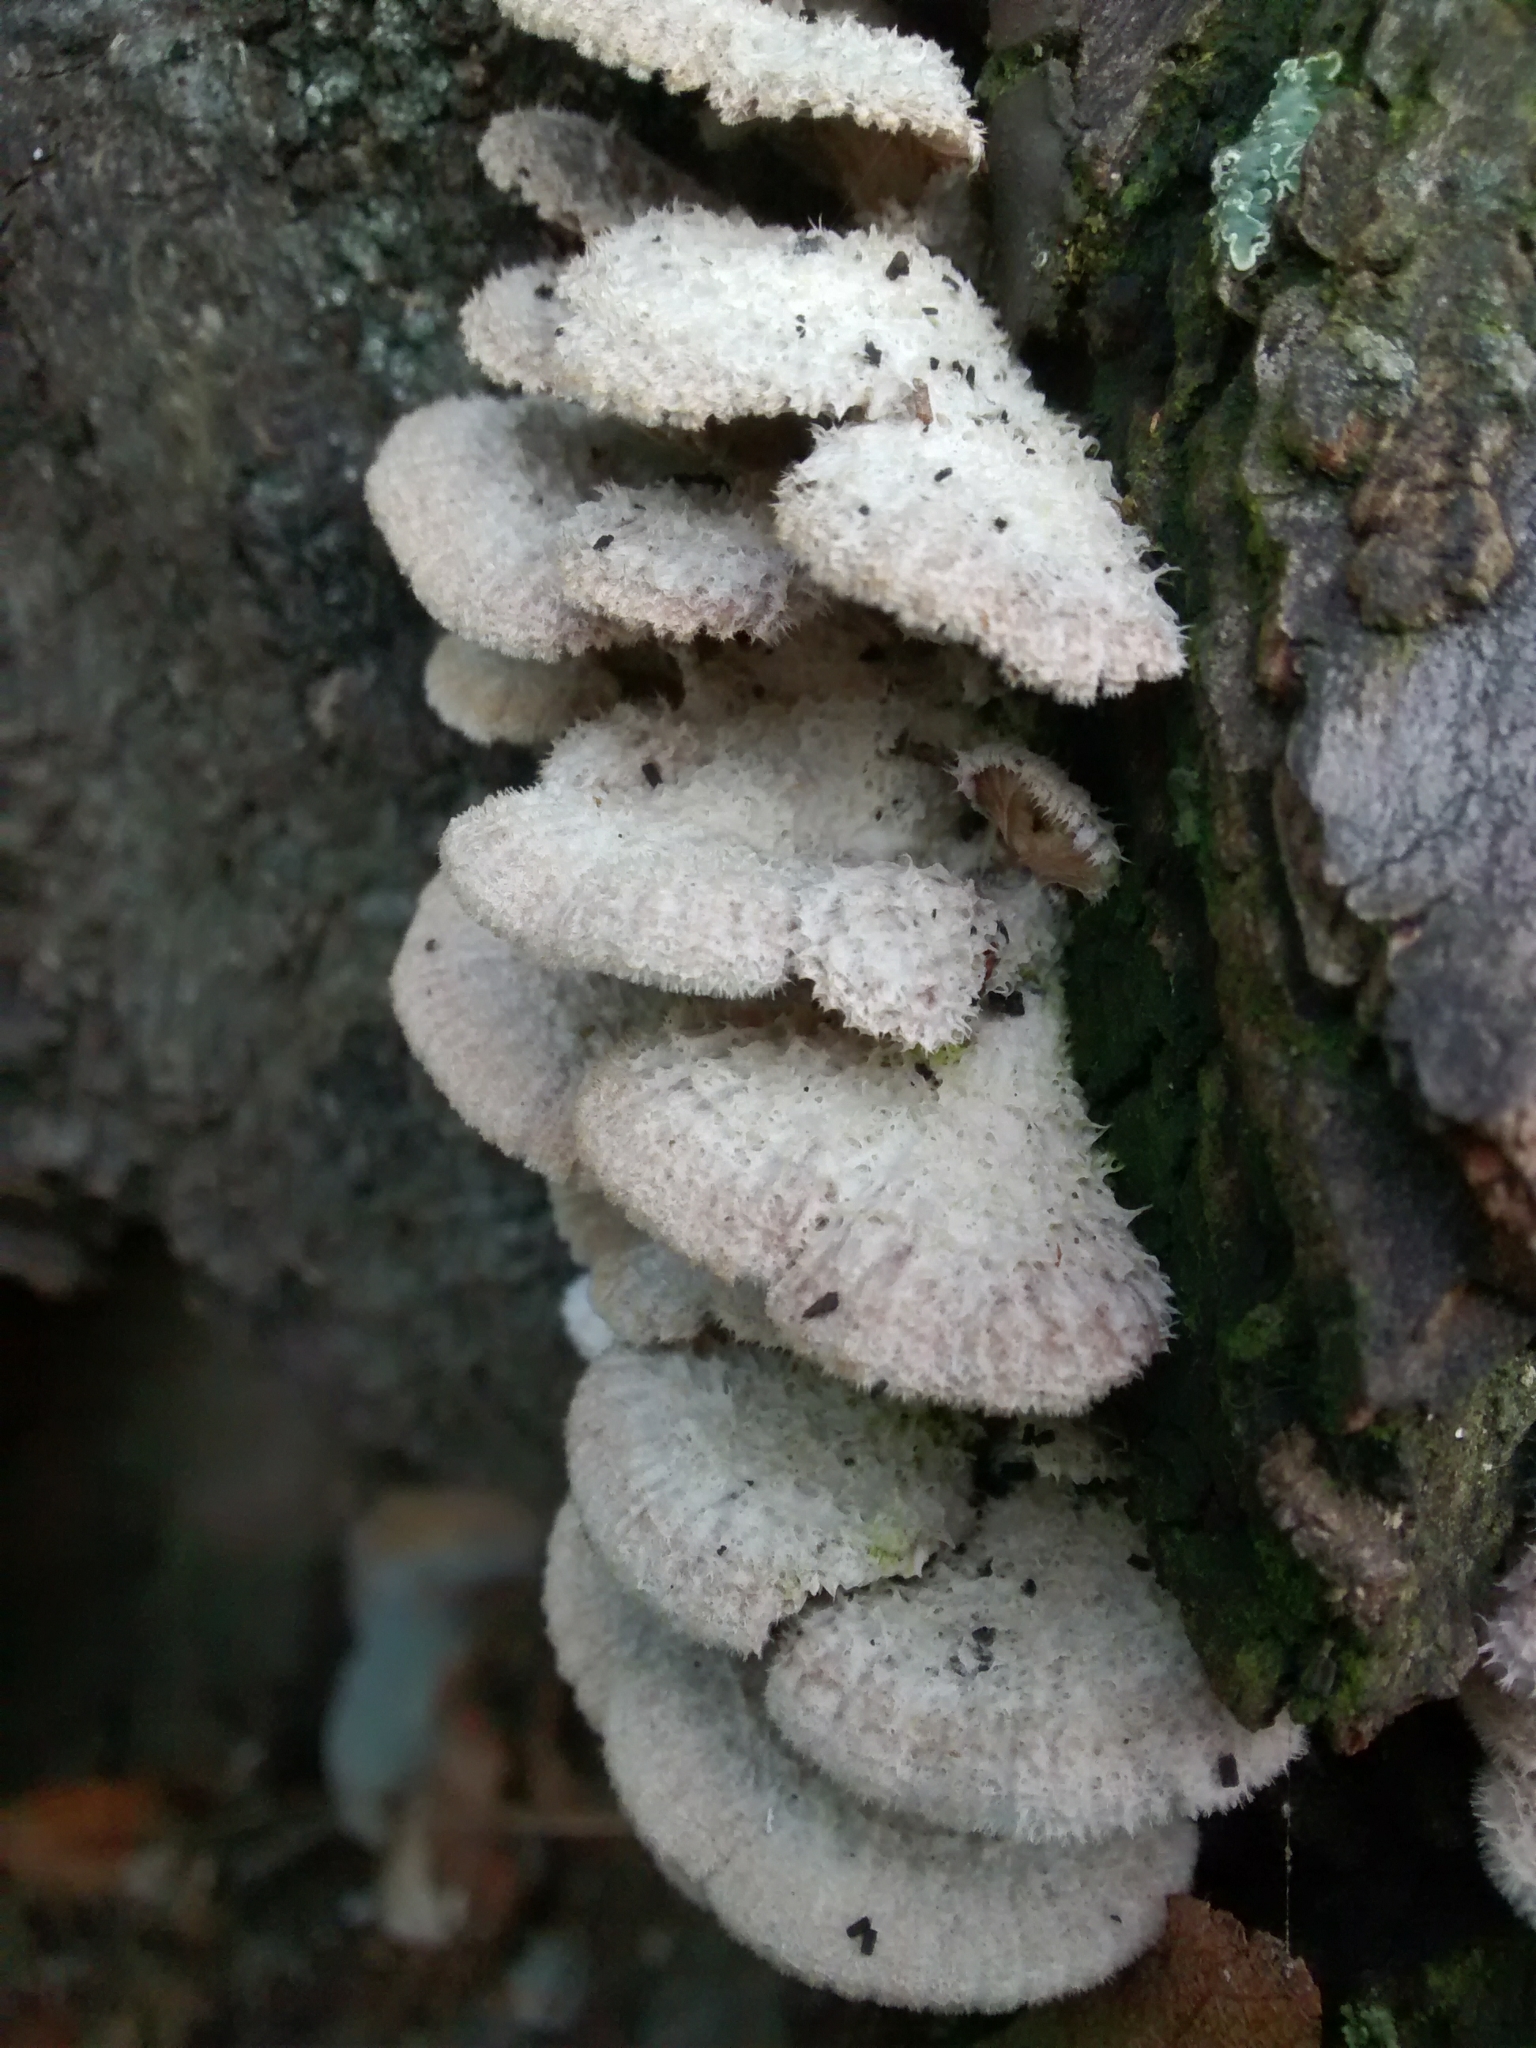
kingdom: Fungi
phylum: Basidiomycota
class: Agaricomycetes
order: Agaricales
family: Schizophyllaceae
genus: Schizophyllum
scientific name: Schizophyllum commune
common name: Common porecrust
